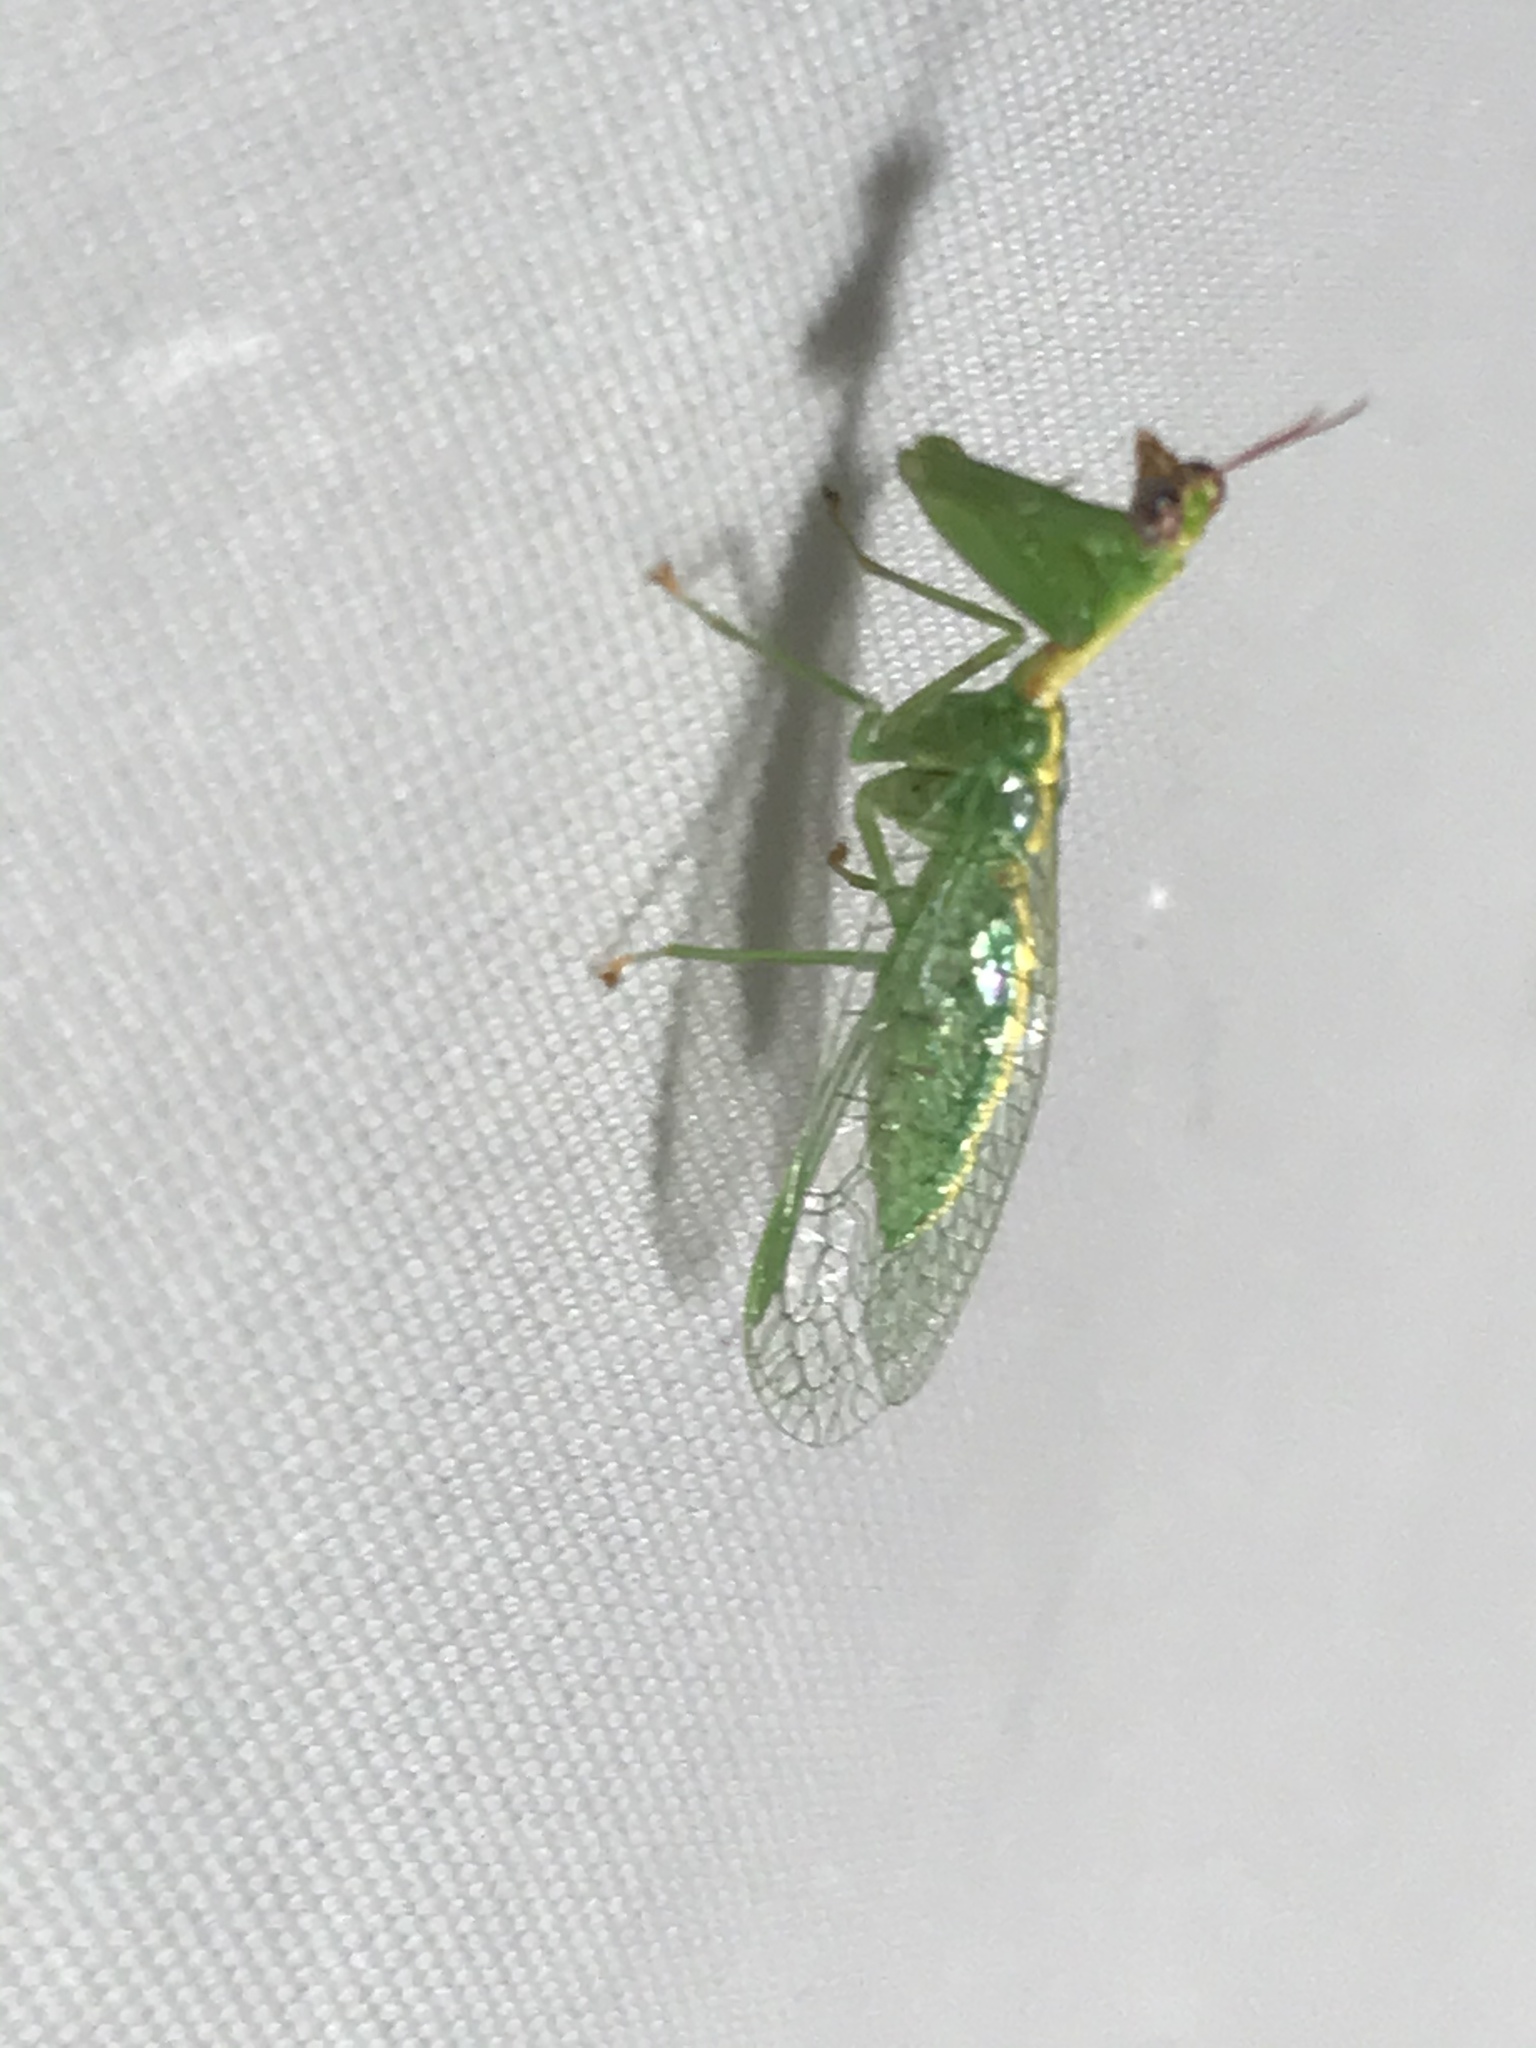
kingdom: Animalia
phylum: Arthropoda
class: Insecta
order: Neuroptera
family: Mantispidae
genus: Zeugomantispa
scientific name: Zeugomantispa minuta
